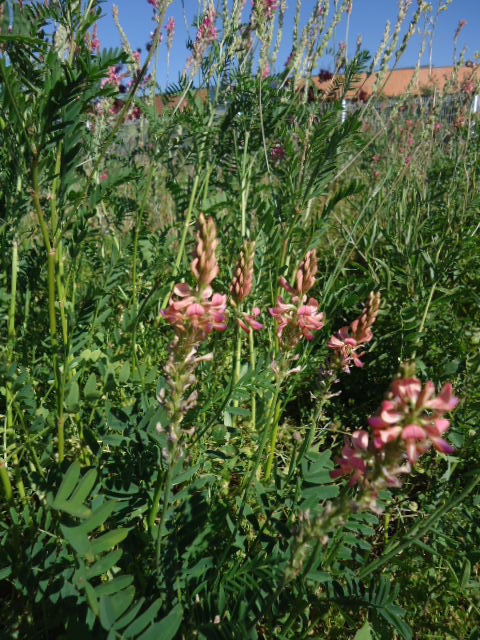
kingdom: Plantae
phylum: Tracheophyta
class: Magnoliopsida
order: Fabales
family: Fabaceae
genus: Onobrychis
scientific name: Onobrychis viciifolia
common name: Sainfoin
